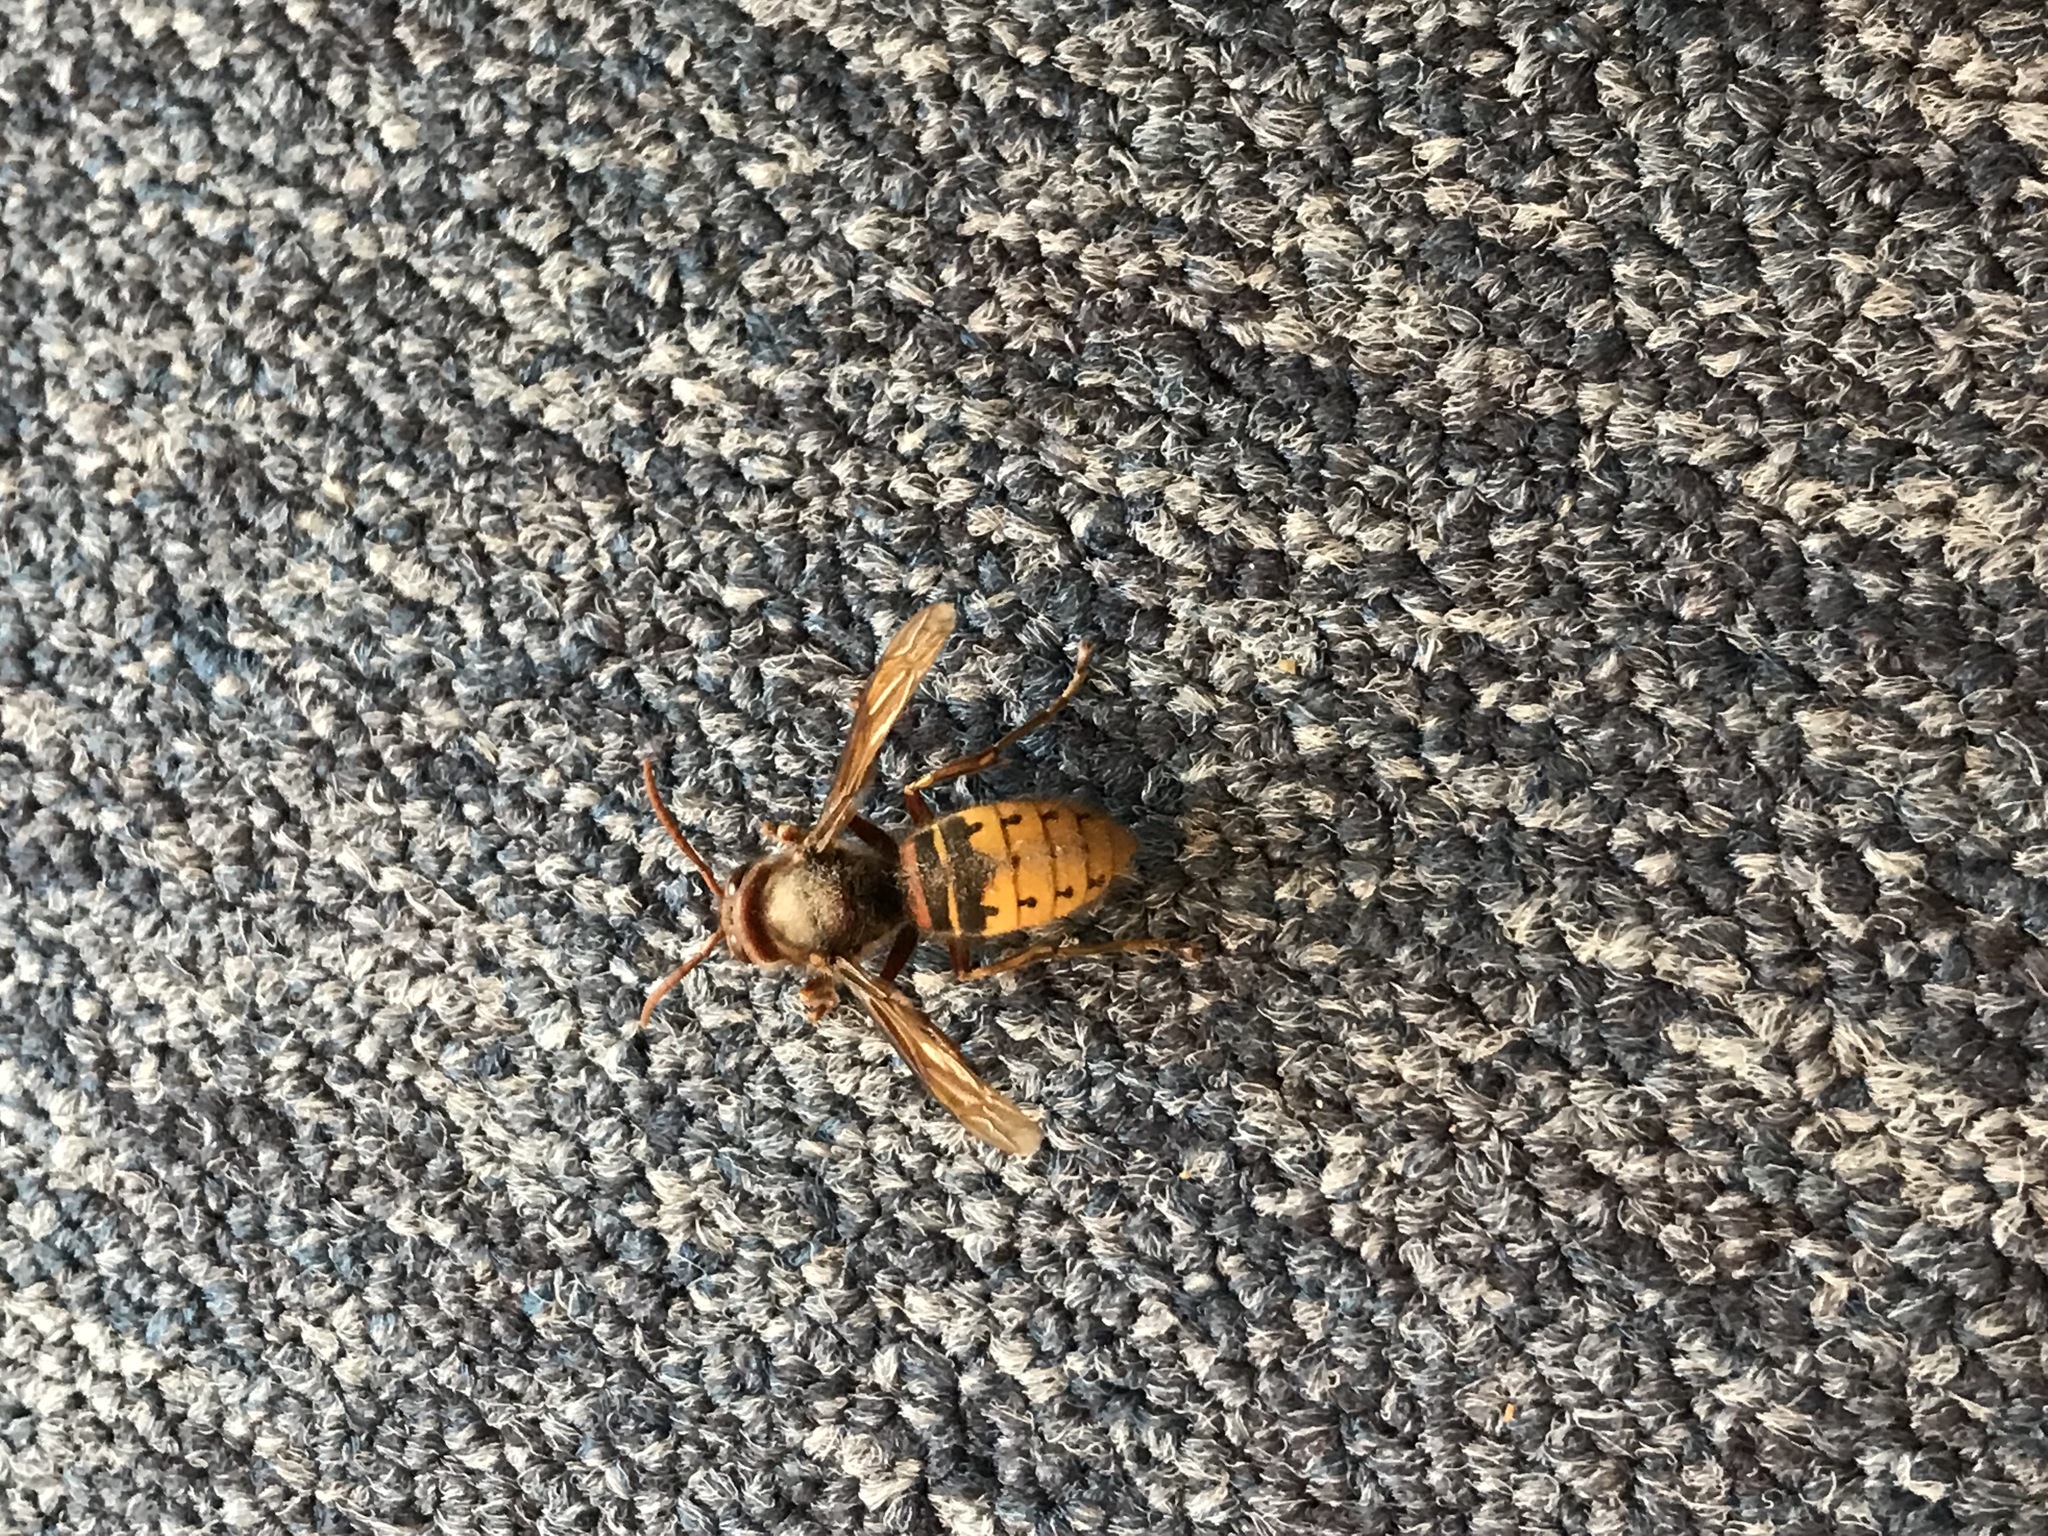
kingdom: Animalia
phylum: Arthropoda
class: Insecta
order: Hymenoptera
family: Vespidae
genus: Vespa
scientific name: Vespa crabro
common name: Hornet
